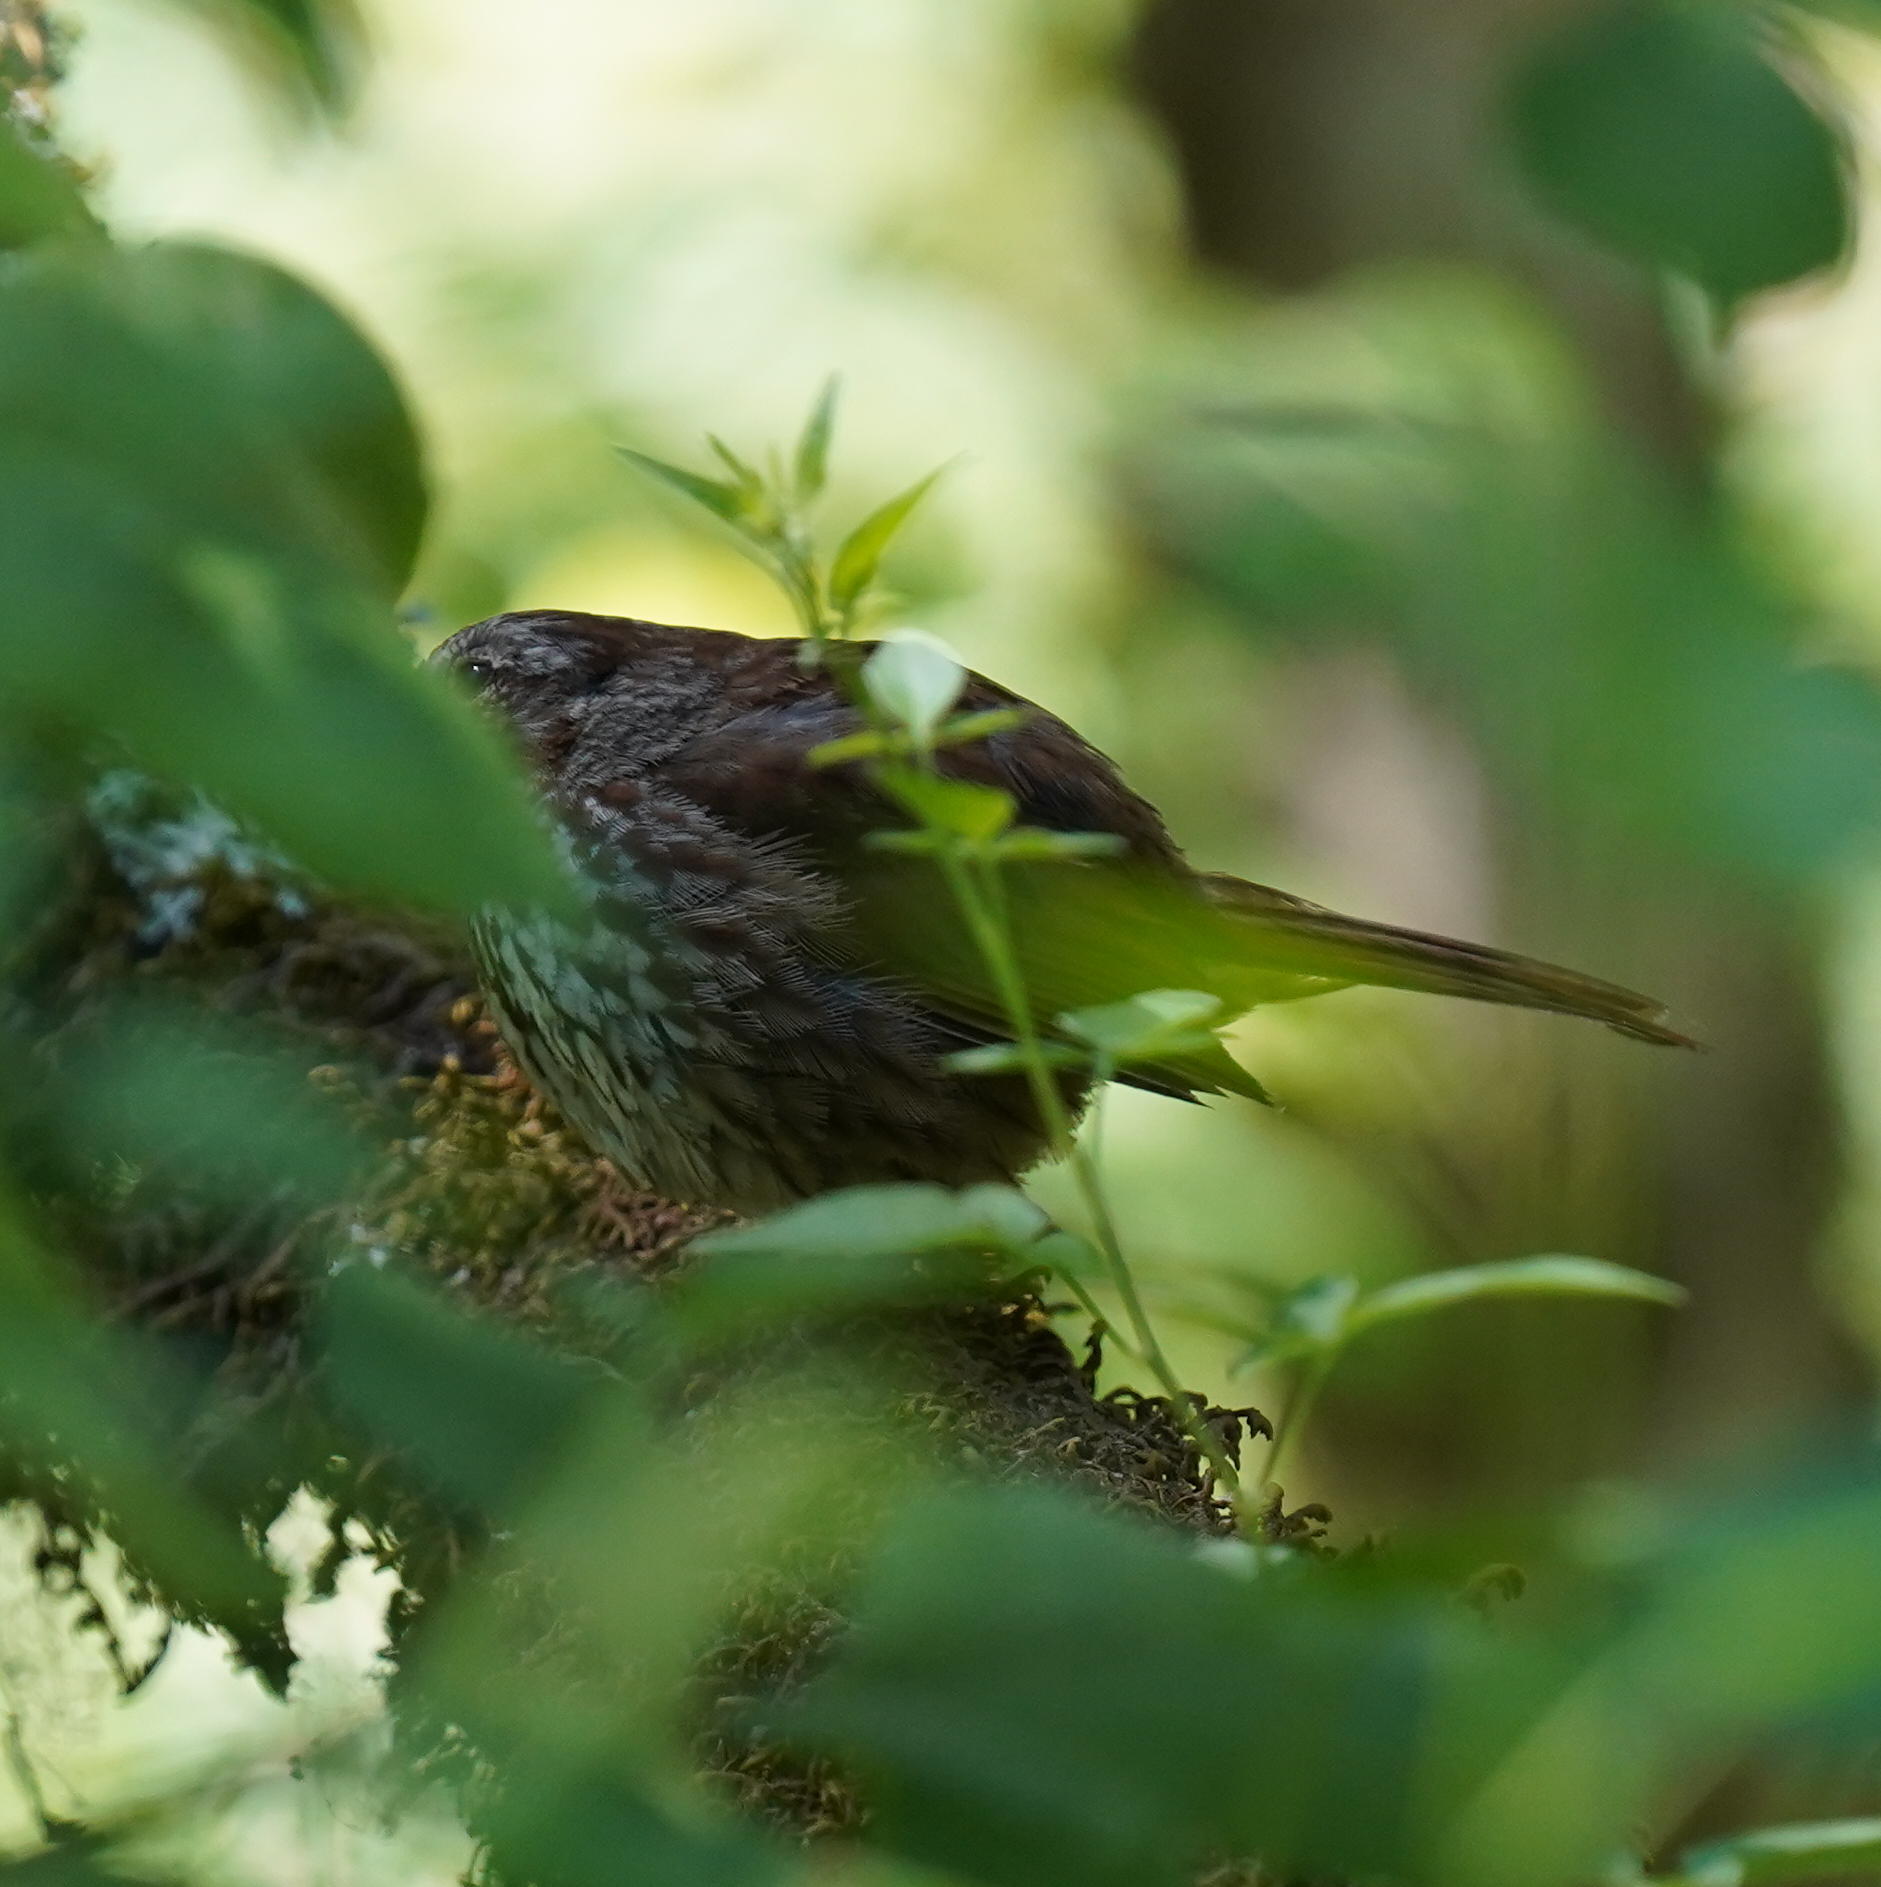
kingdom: Animalia
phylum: Chordata
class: Aves
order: Passeriformes
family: Passerellidae
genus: Melospiza
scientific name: Melospiza melodia
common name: Song sparrow
